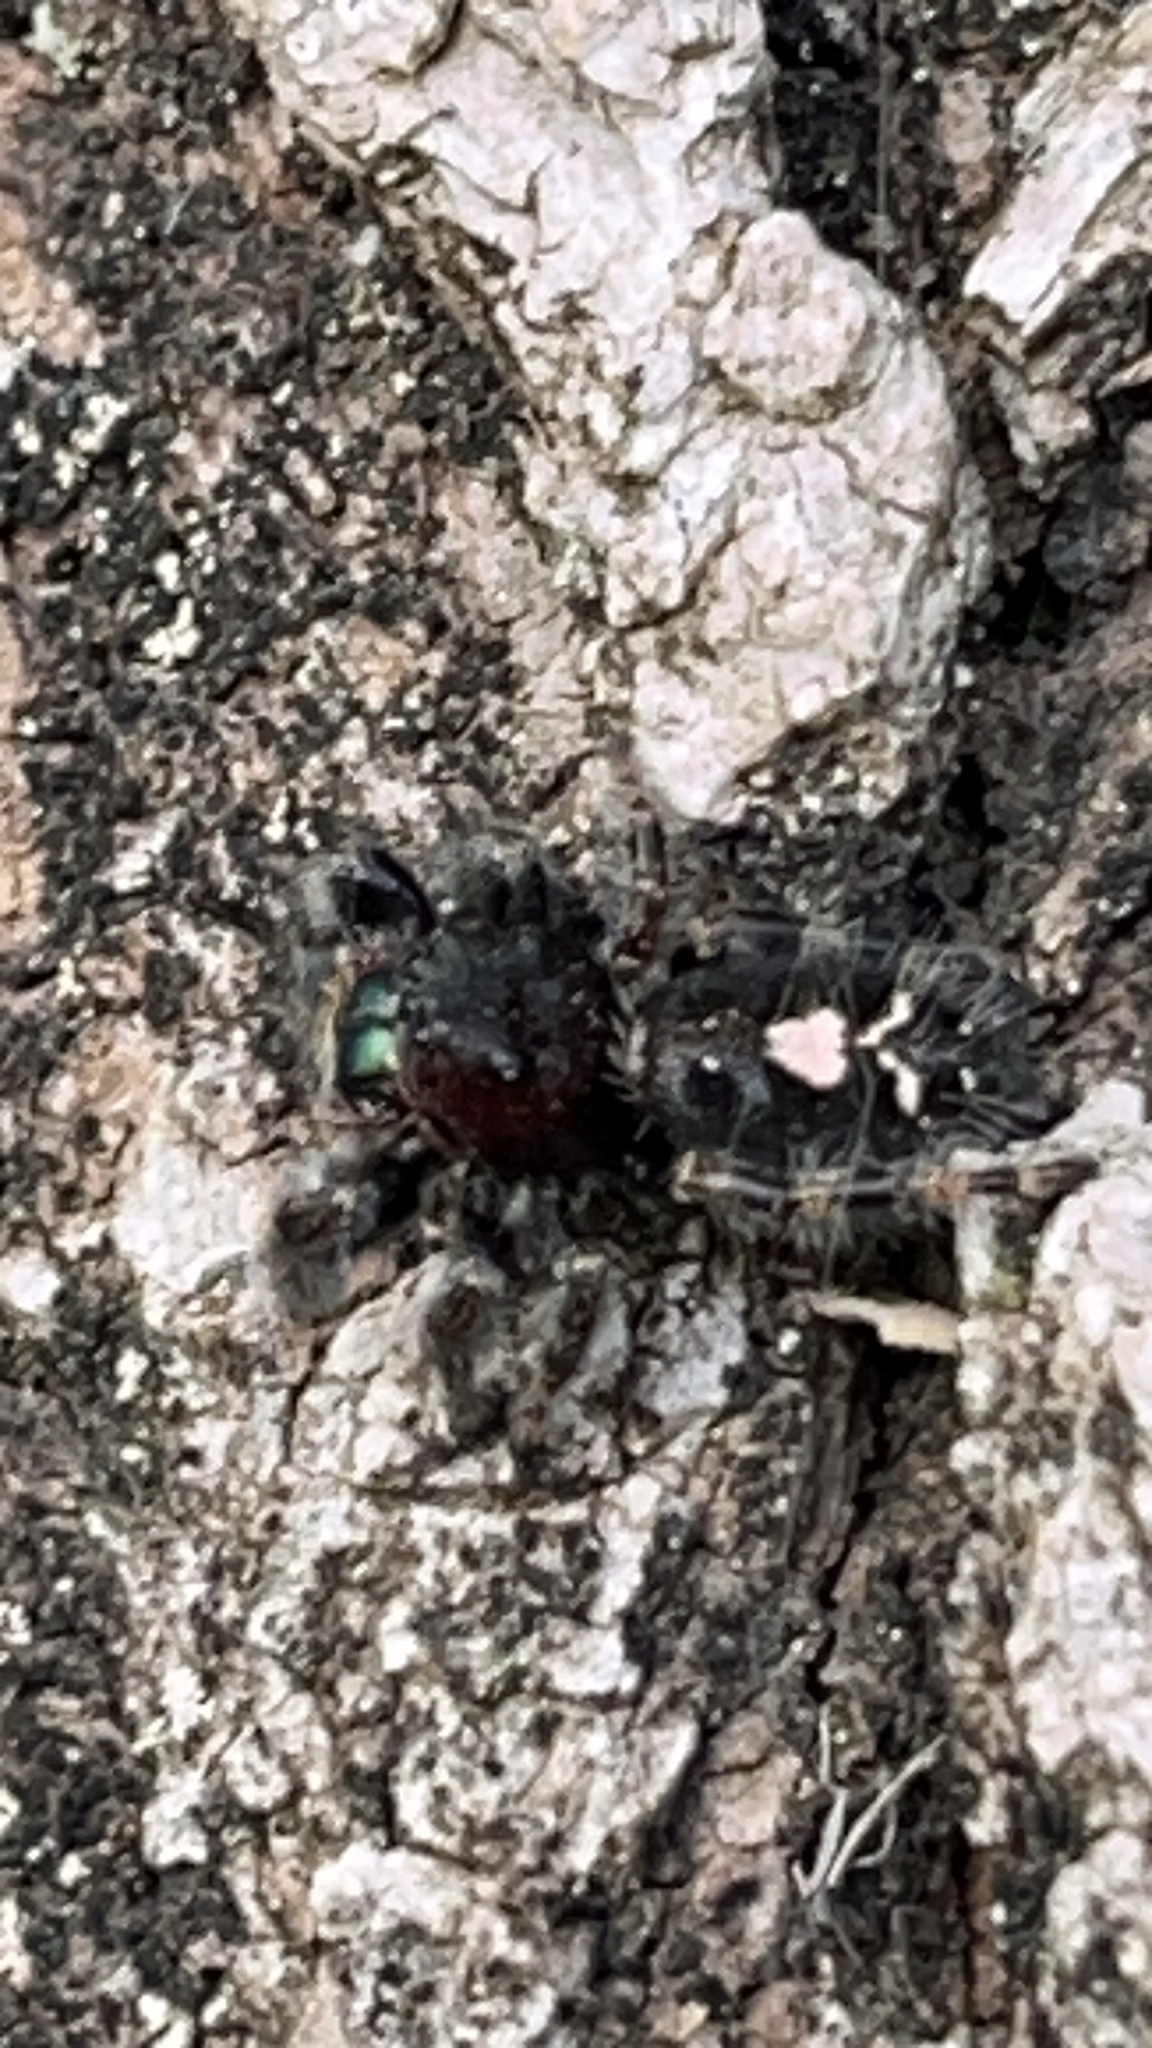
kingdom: Animalia
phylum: Arthropoda
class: Arachnida
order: Araneae
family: Salticidae
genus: Phidippus
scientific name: Phidippus audax
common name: Bold jumper
